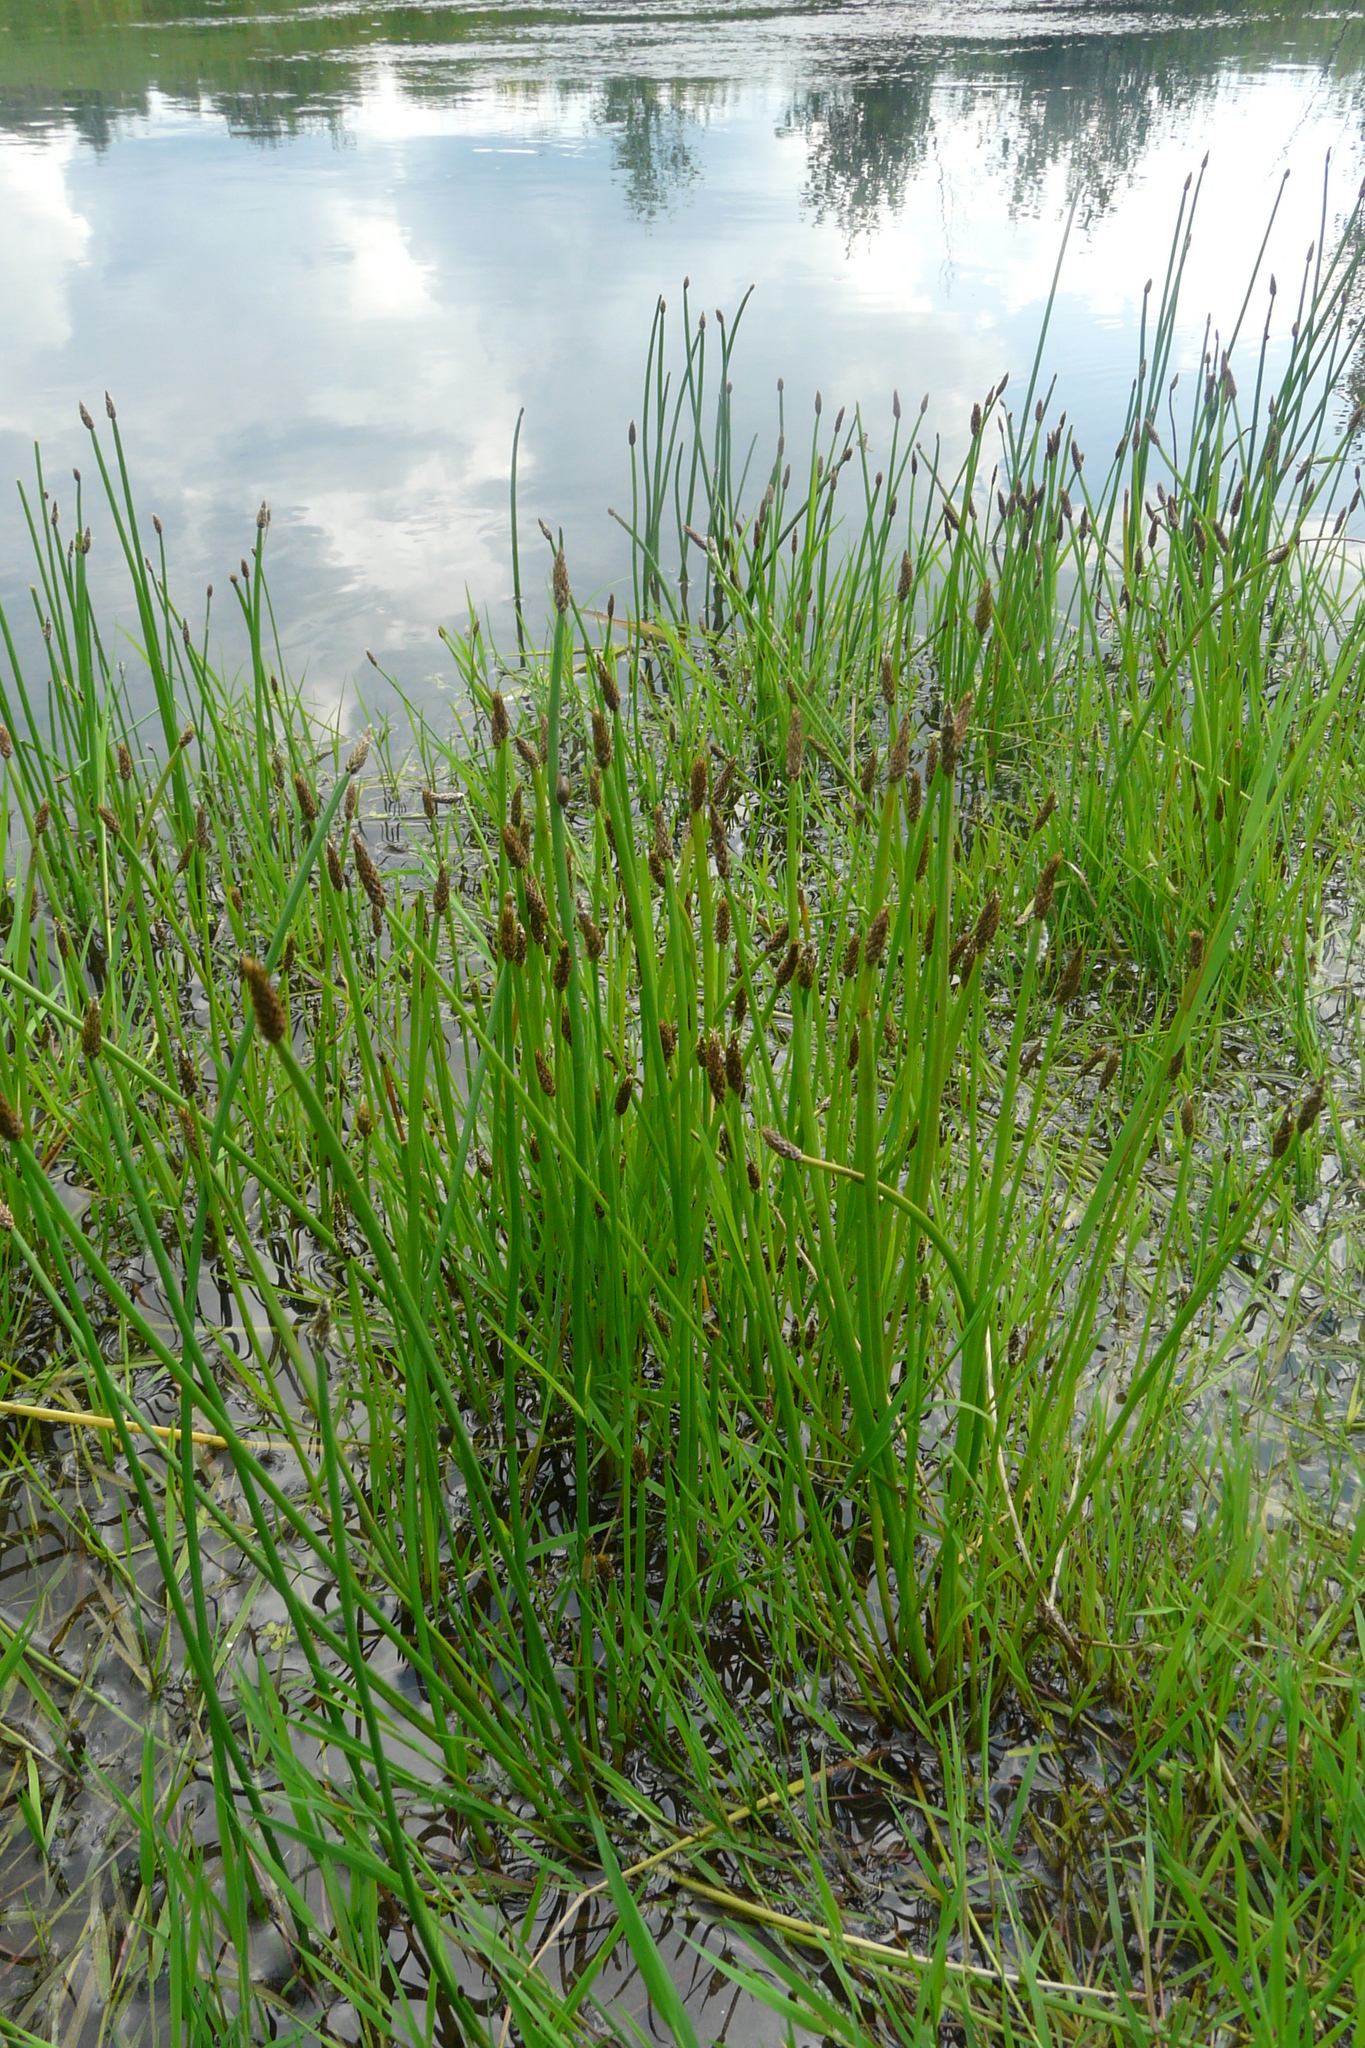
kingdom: Plantae
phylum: Tracheophyta
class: Liliopsida
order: Poales
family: Cyperaceae
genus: Eleocharis
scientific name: Eleocharis palustris
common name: Common spike-rush
